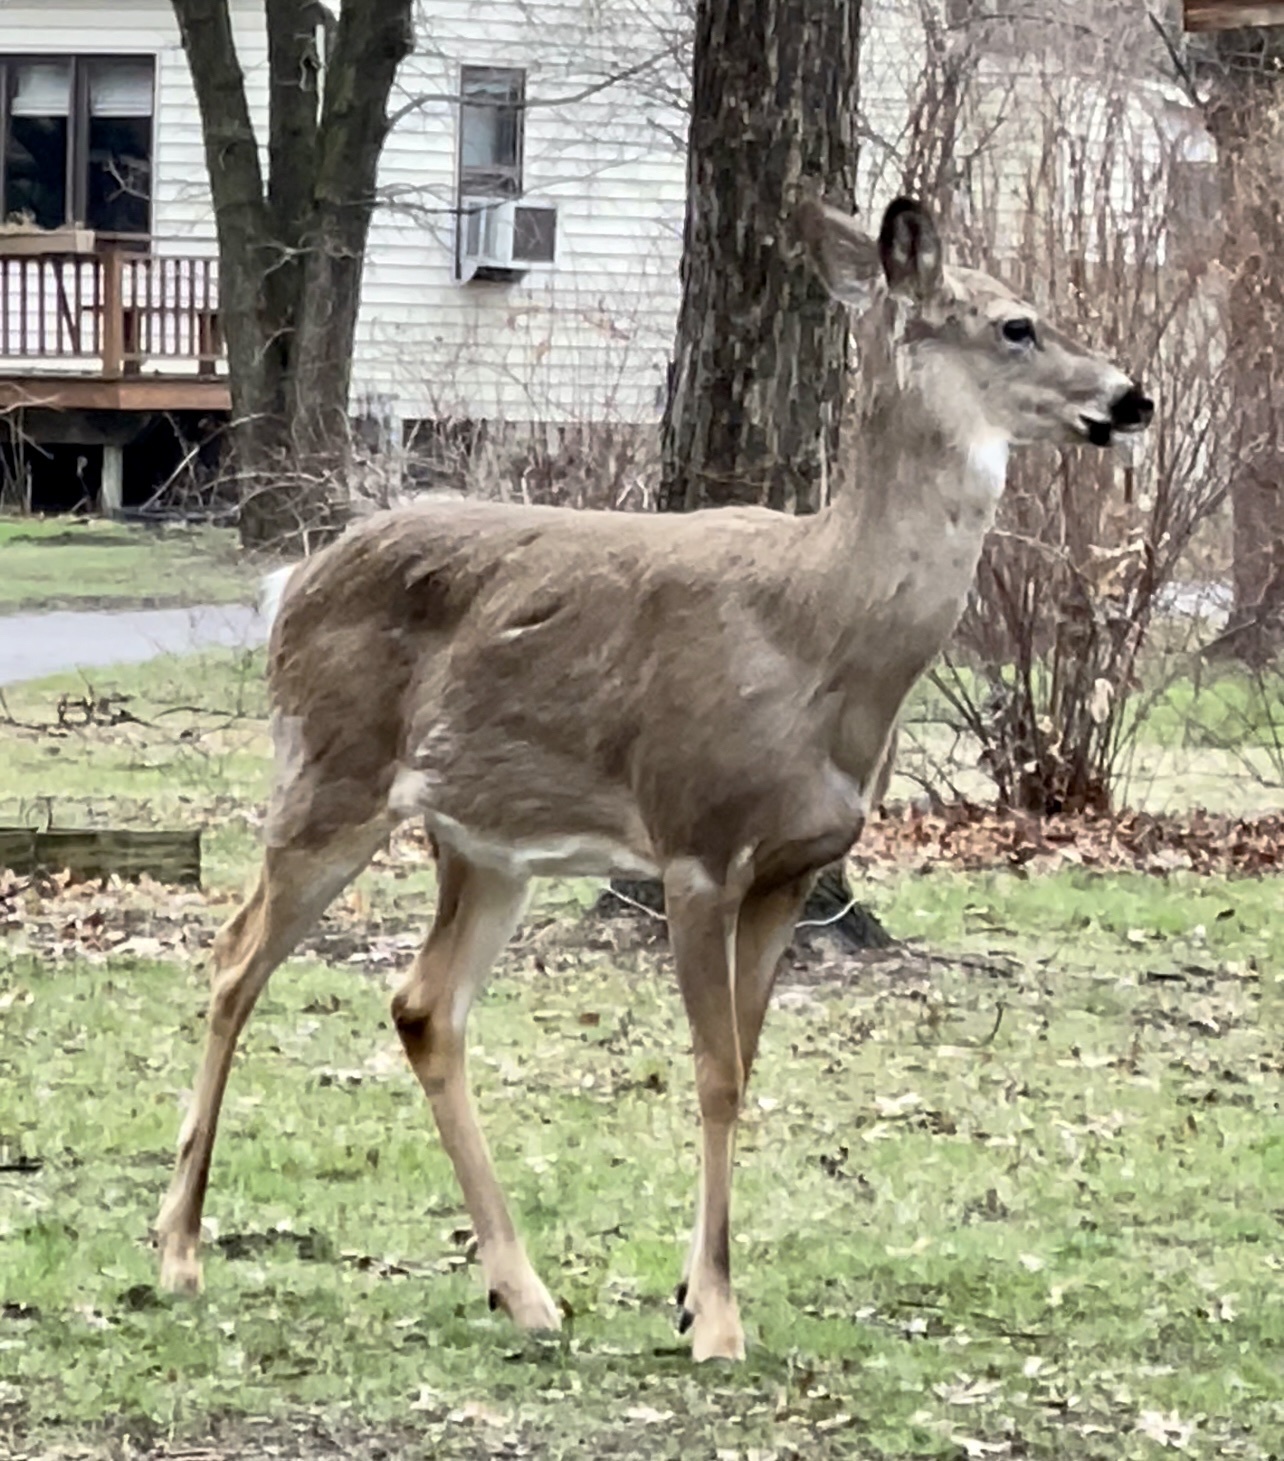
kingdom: Animalia
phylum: Chordata
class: Mammalia
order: Artiodactyla
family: Cervidae
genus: Odocoileus
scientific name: Odocoileus virginianus
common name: White-tailed deer
